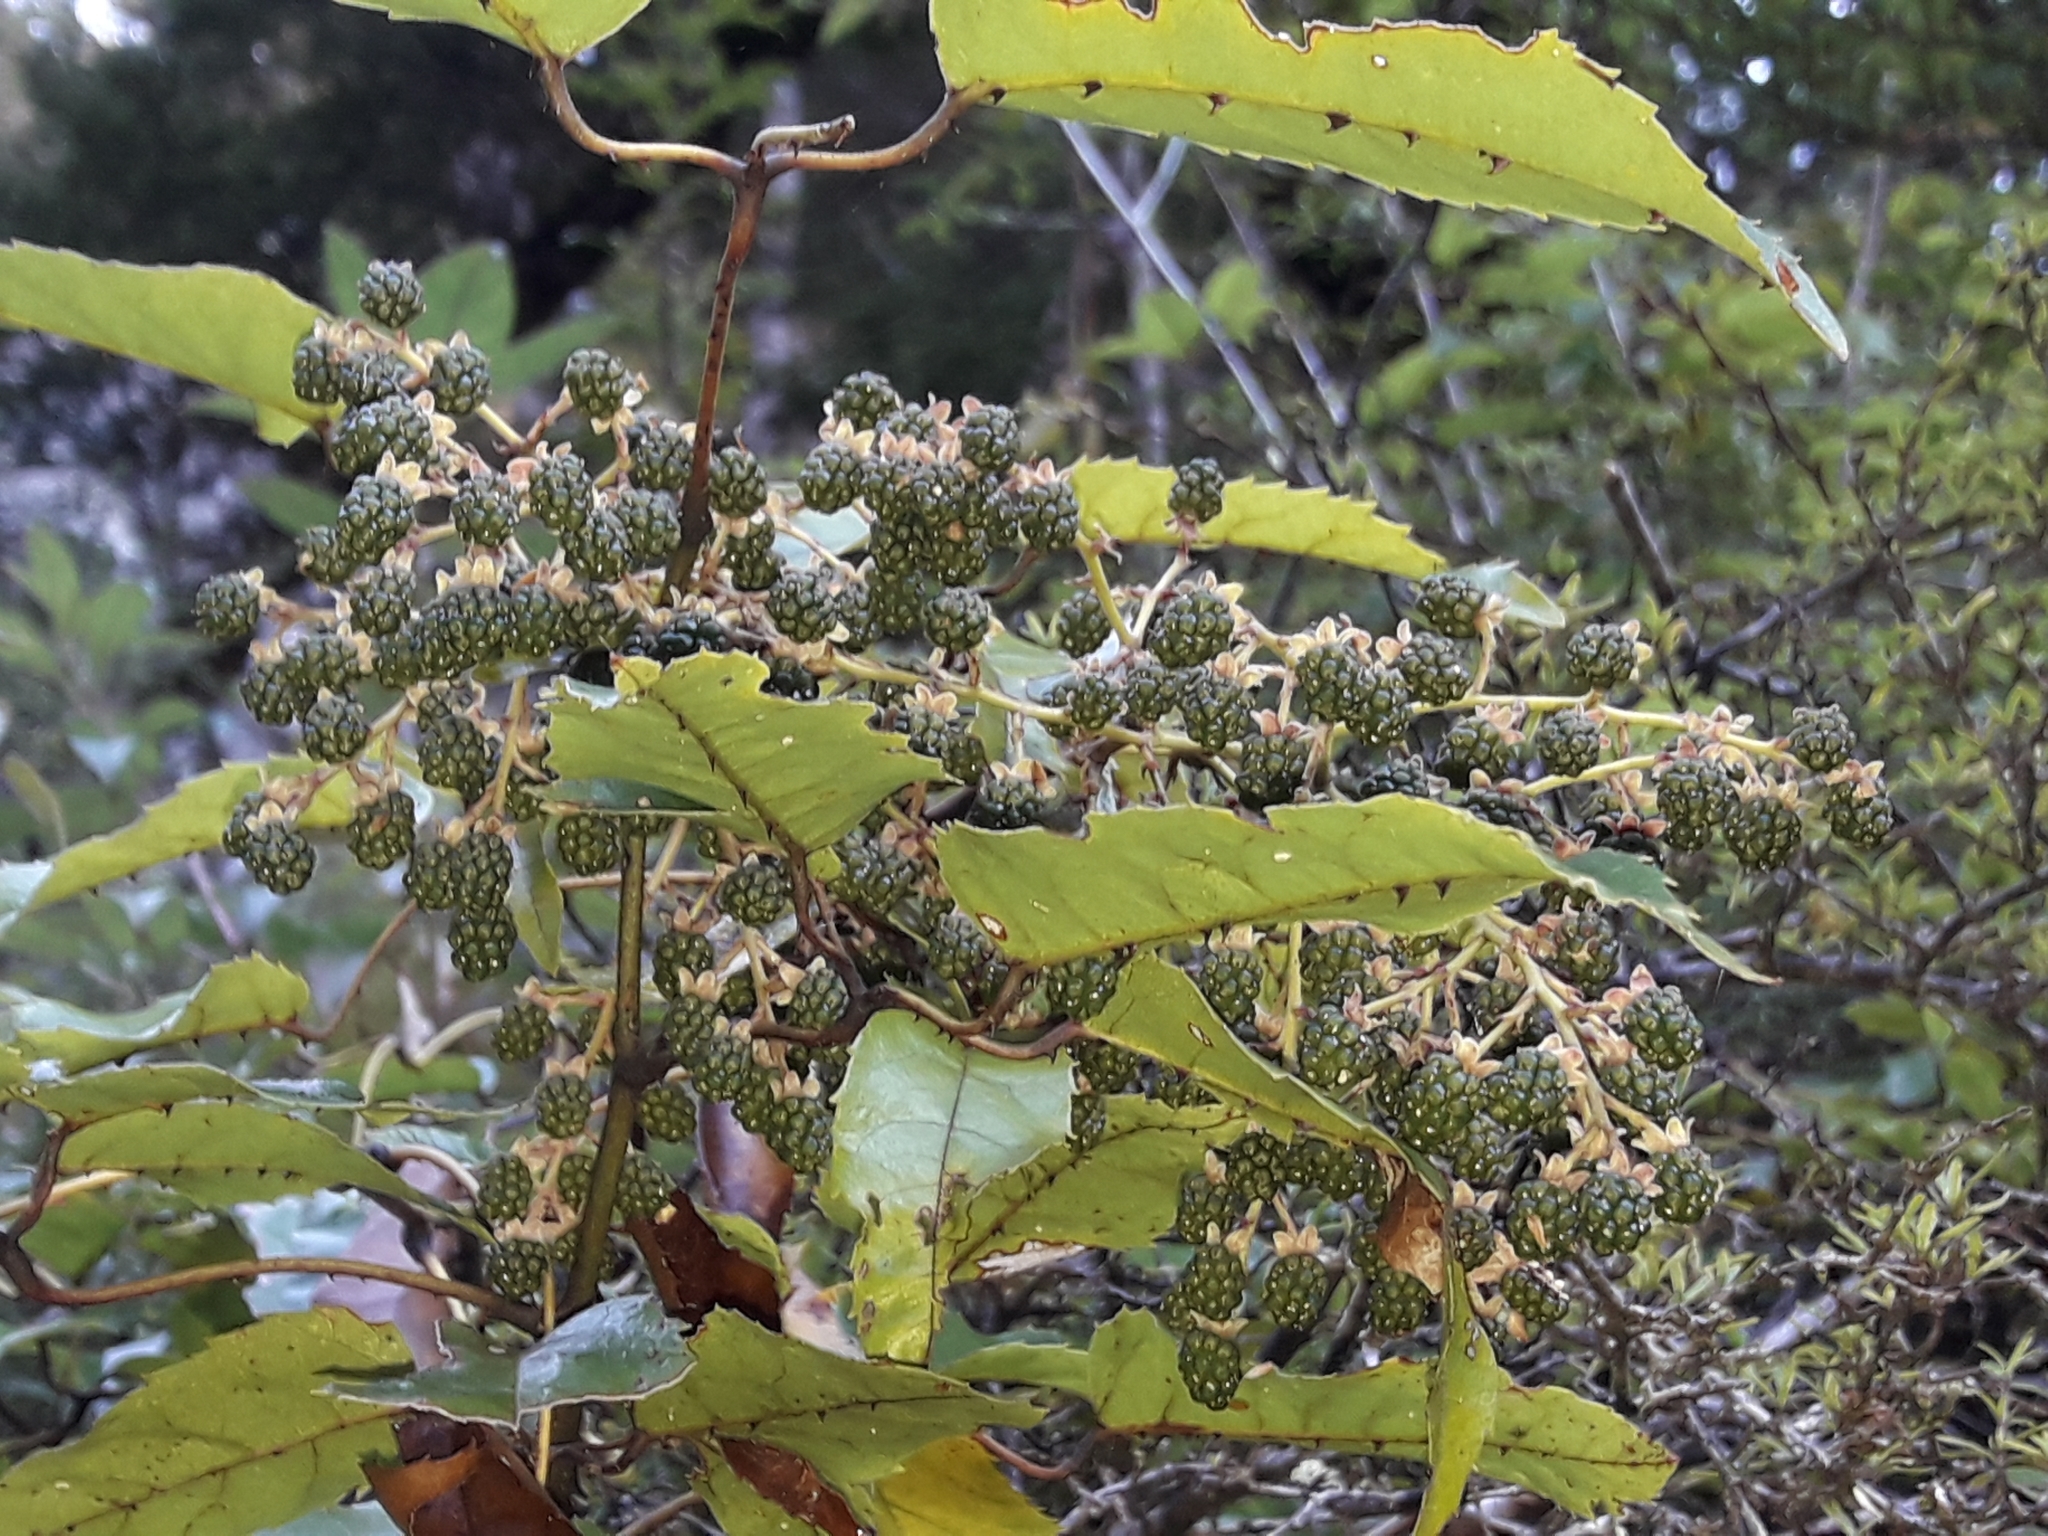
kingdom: Plantae
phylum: Tracheophyta
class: Magnoliopsida
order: Rosales
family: Rosaceae
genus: Rubus
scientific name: Rubus cissoides
